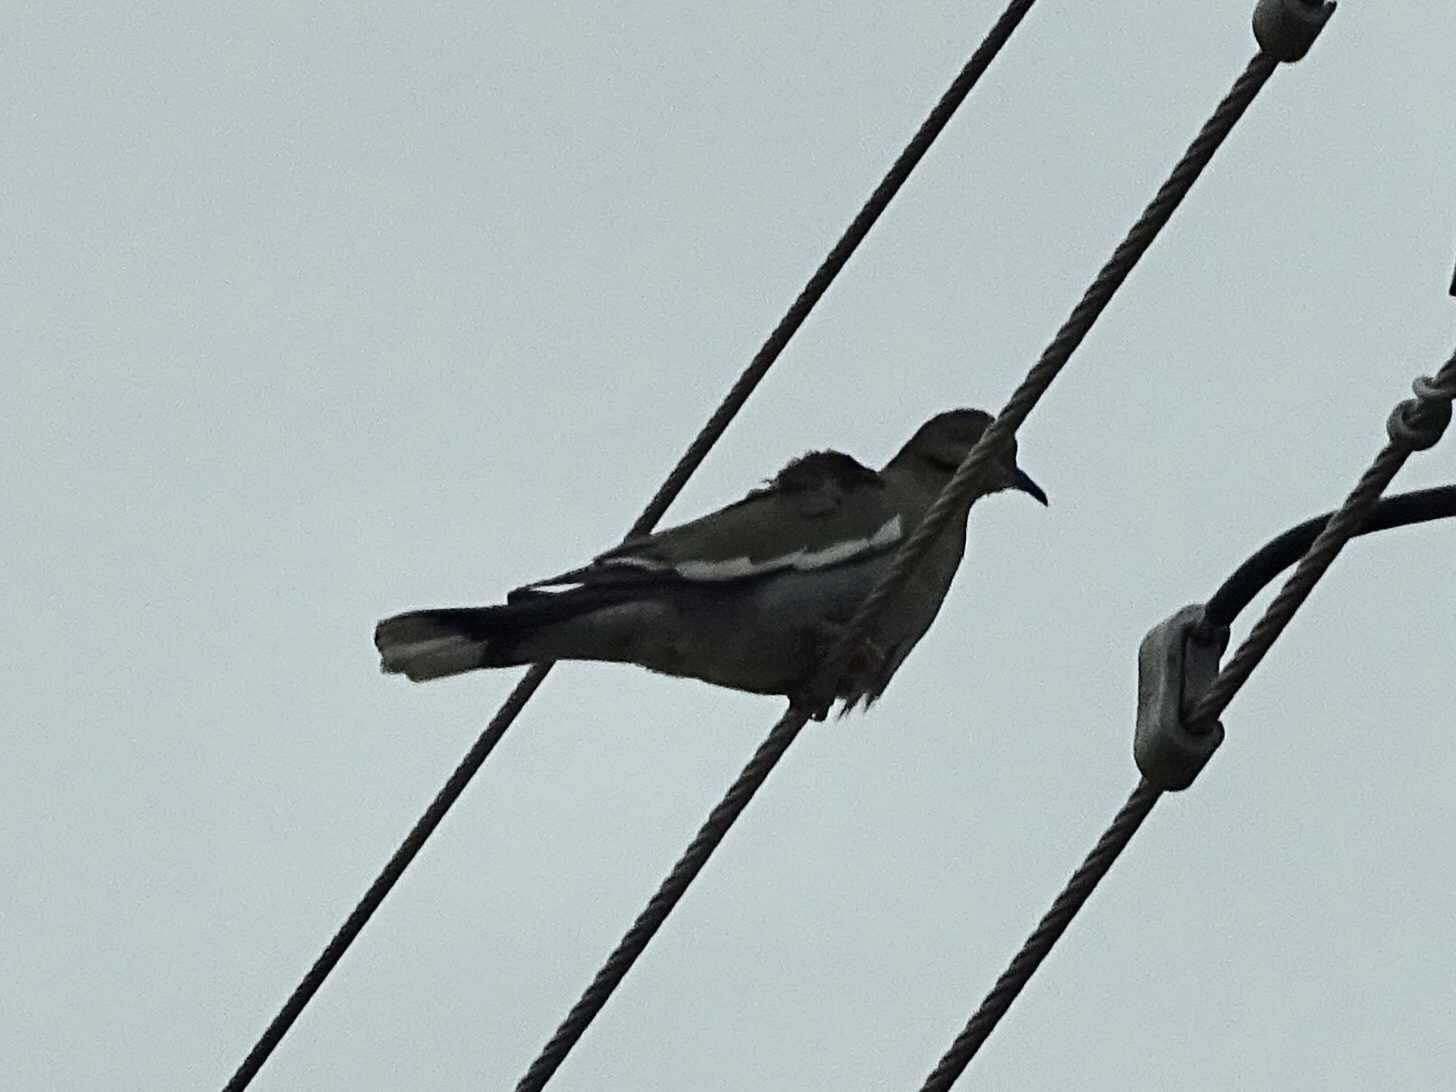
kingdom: Animalia
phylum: Chordata
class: Aves
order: Columbiformes
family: Columbidae
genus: Zenaida
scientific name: Zenaida asiatica
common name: White-winged dove
